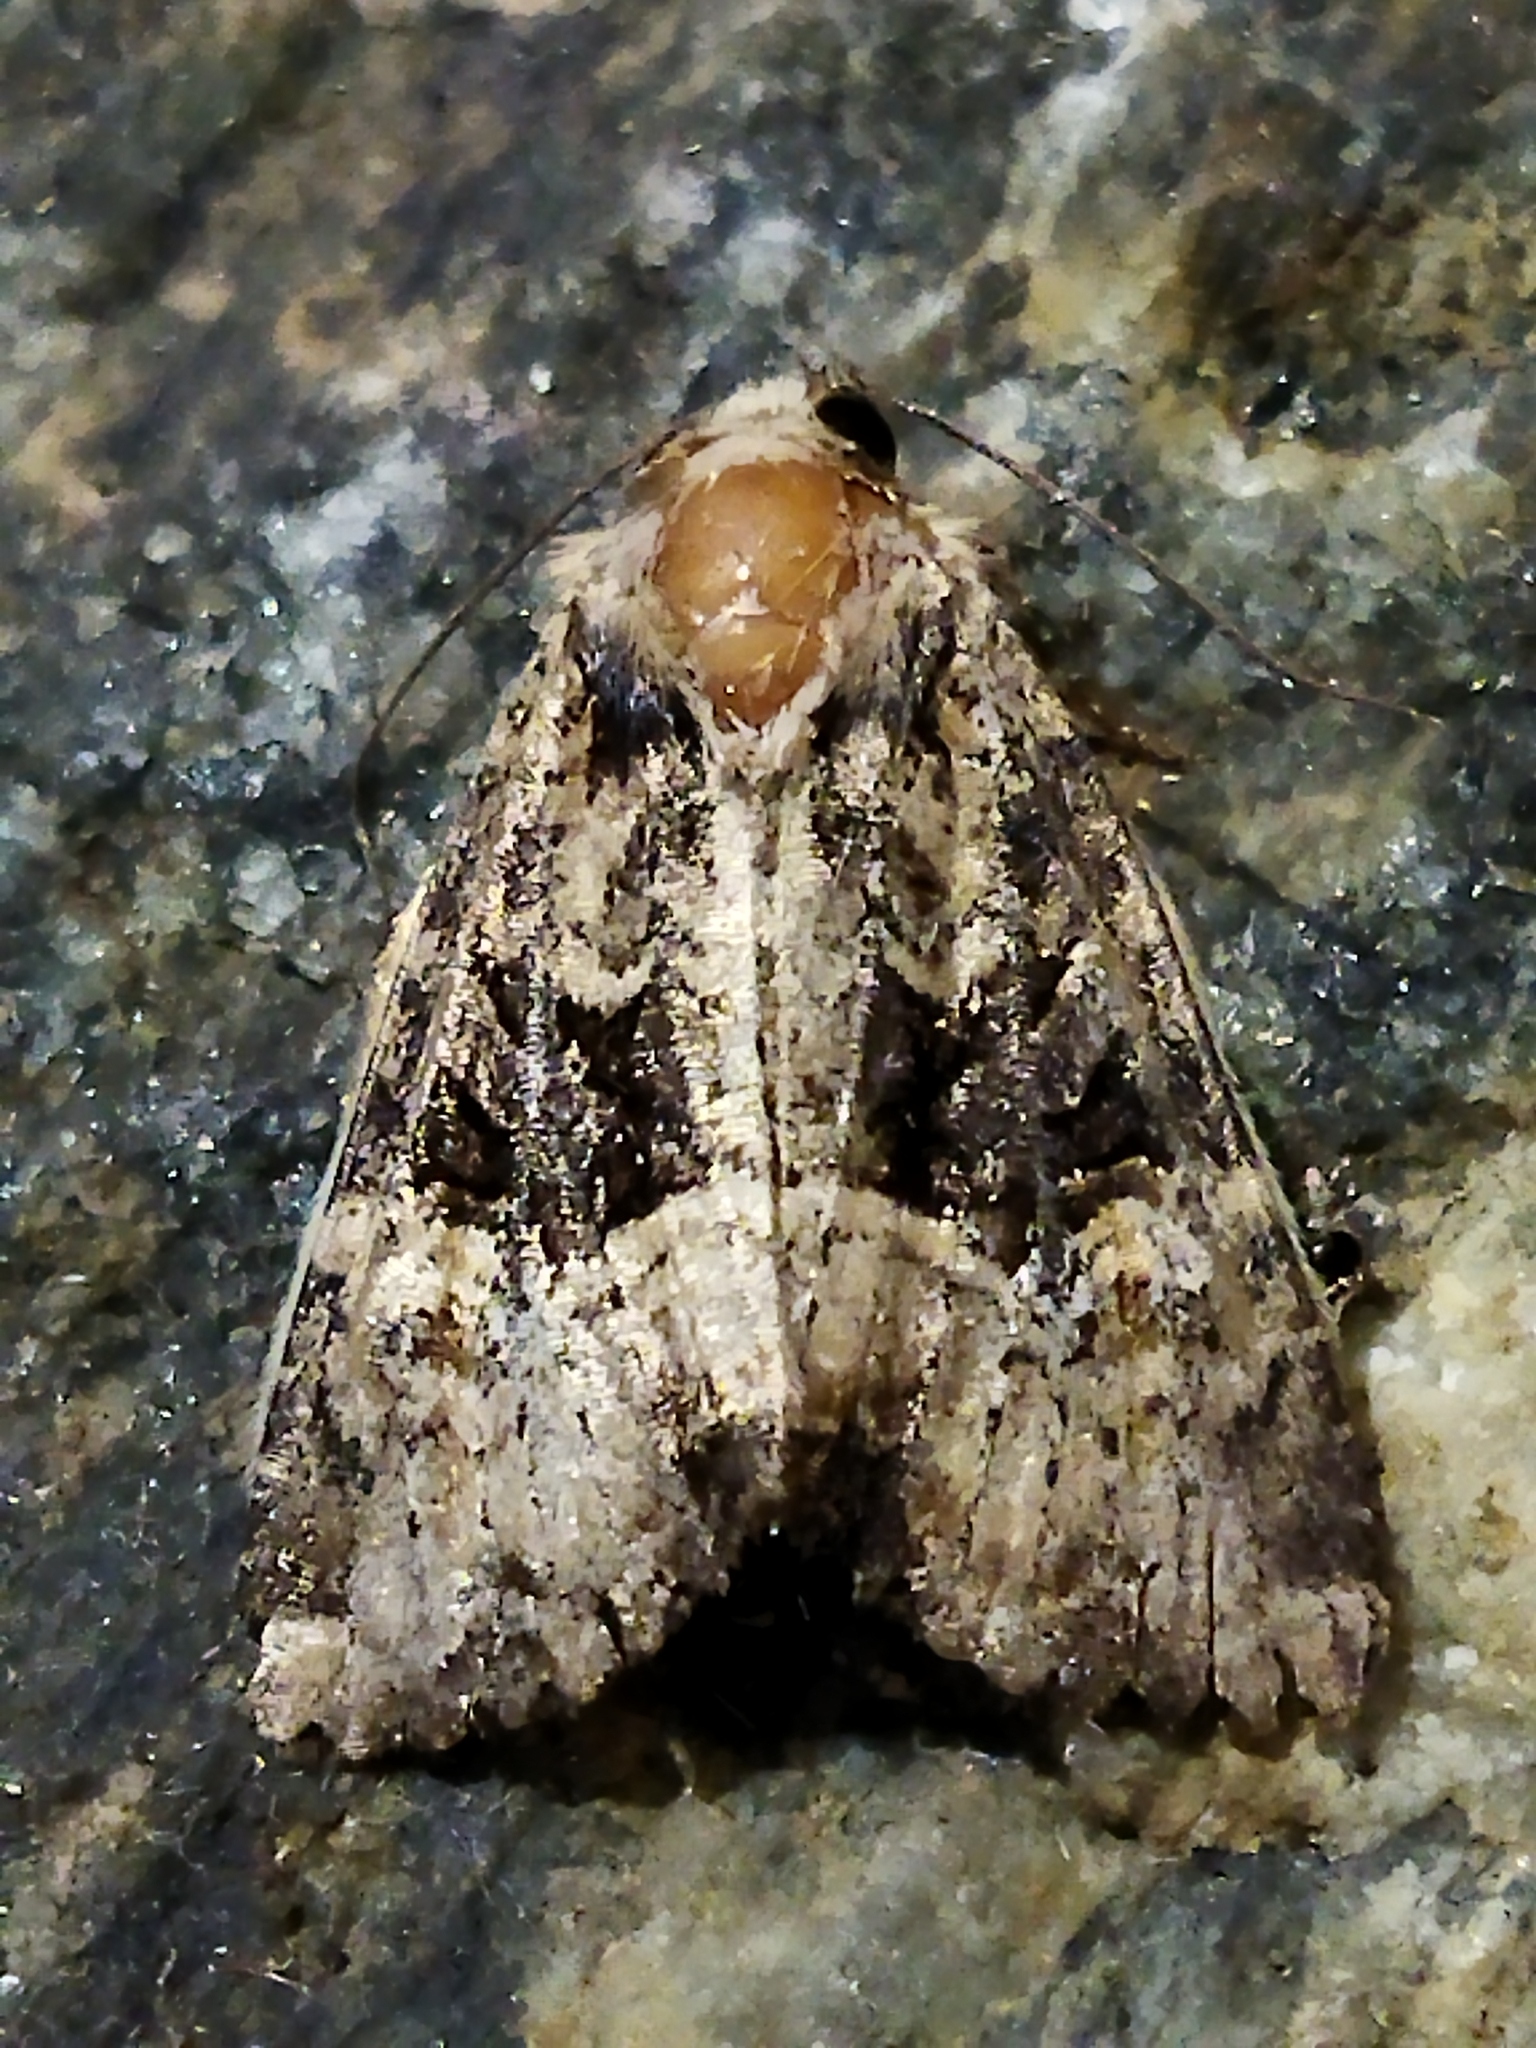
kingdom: Animalia
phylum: Arthropoda
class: Insecta
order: Lepidoptera
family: Noctuidae
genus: Mesapamea
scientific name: Mesapamea
